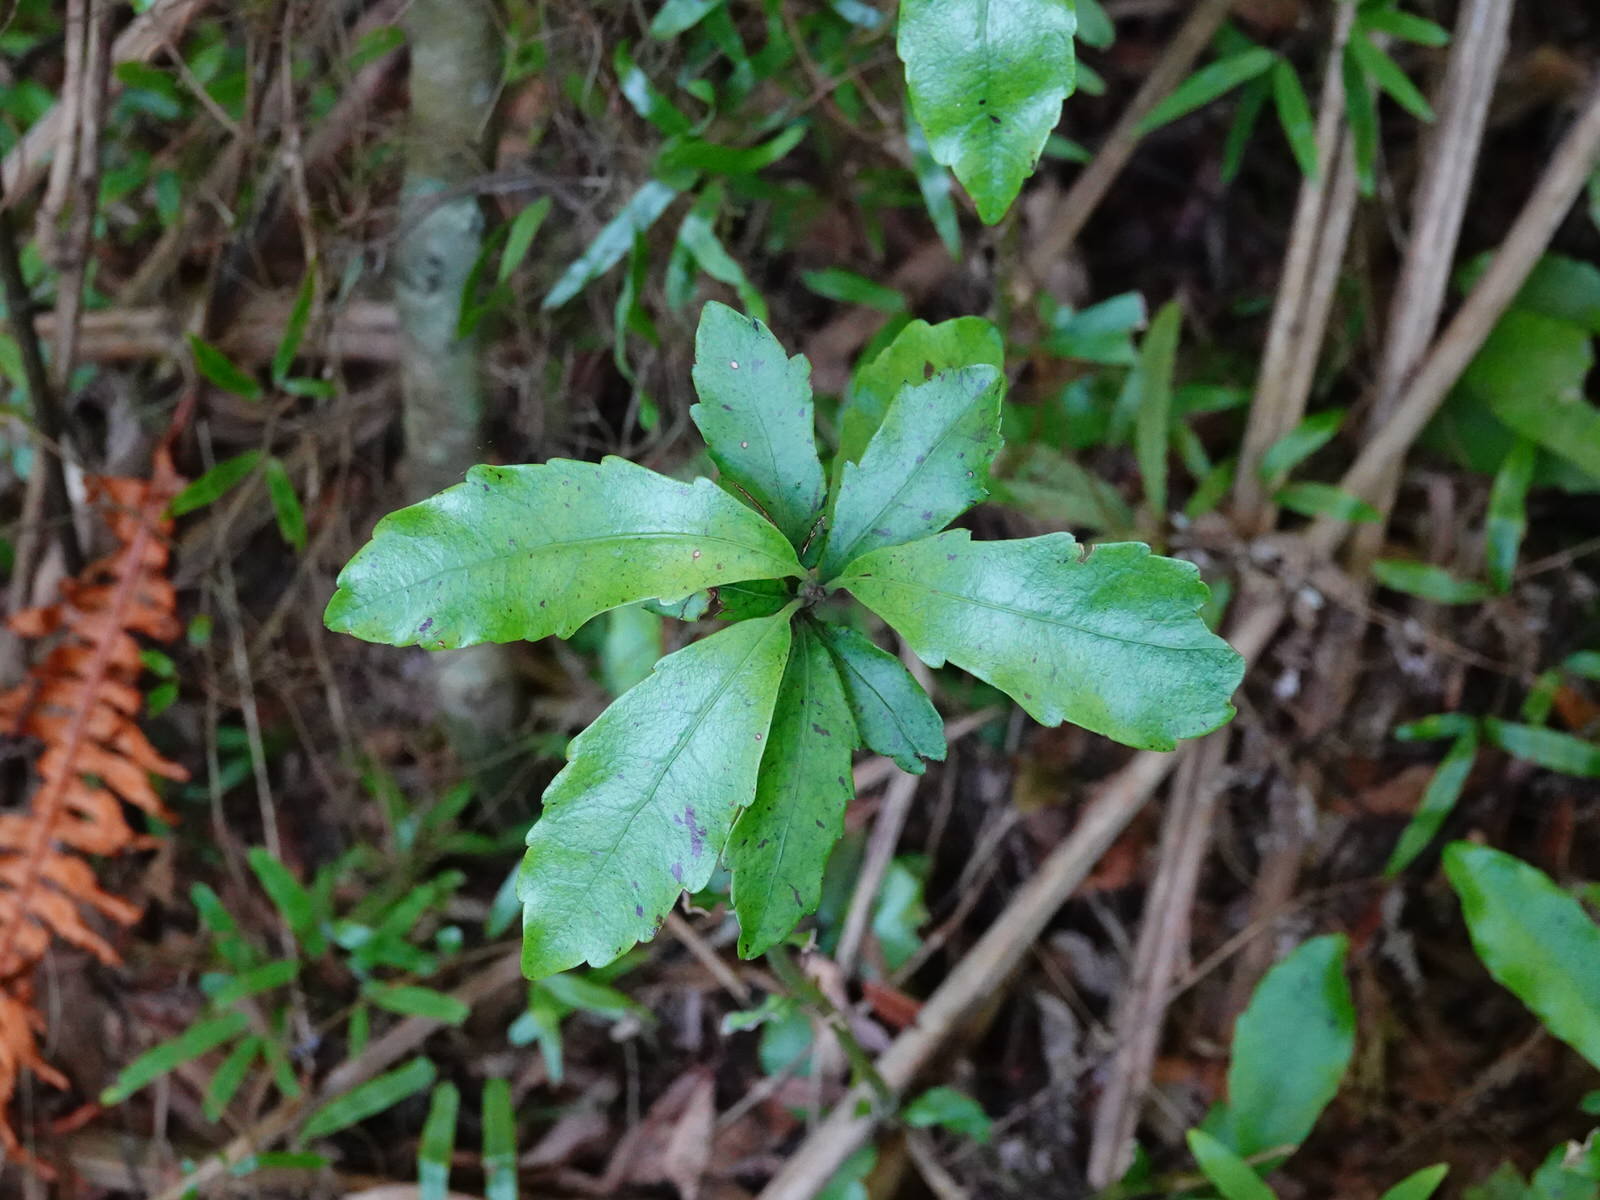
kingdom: Plantae
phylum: Tracheophyta
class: Magnoliopsida
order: Asterales
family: Alseuosmiaceae
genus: Alseuosmia
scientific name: Alseuosmia macrophylla
